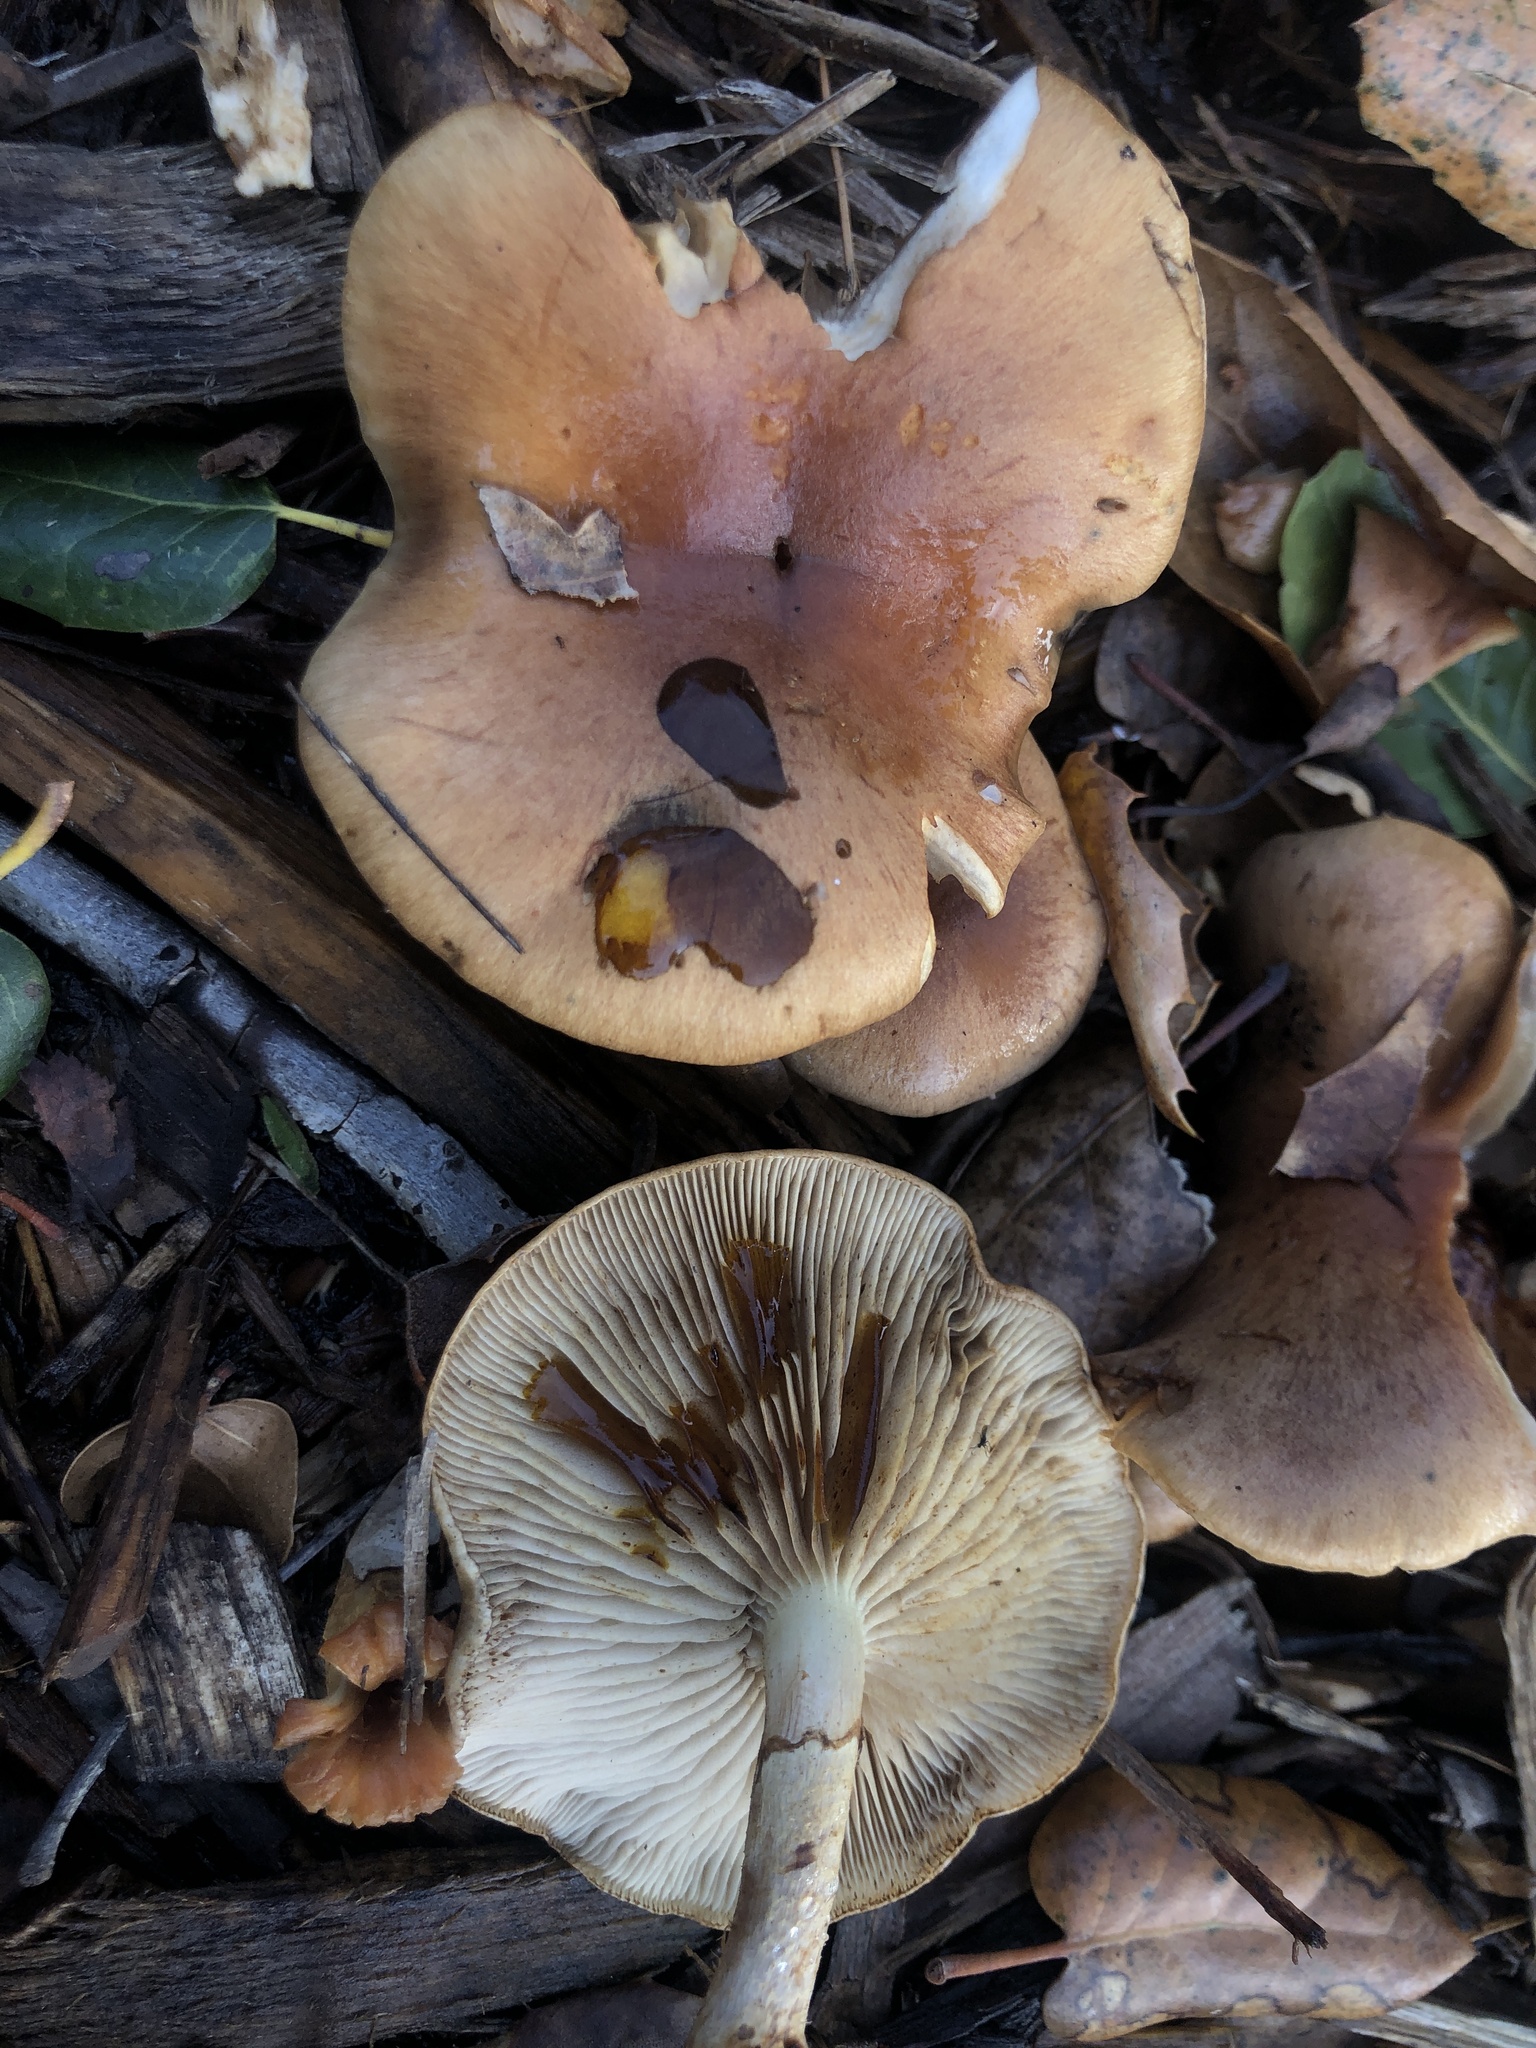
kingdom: Fungi
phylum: Basidiomycota
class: Agaricomycetes
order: Agaricales
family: Strophariaceae
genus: Pholiota
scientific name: Pholiota spumosa
